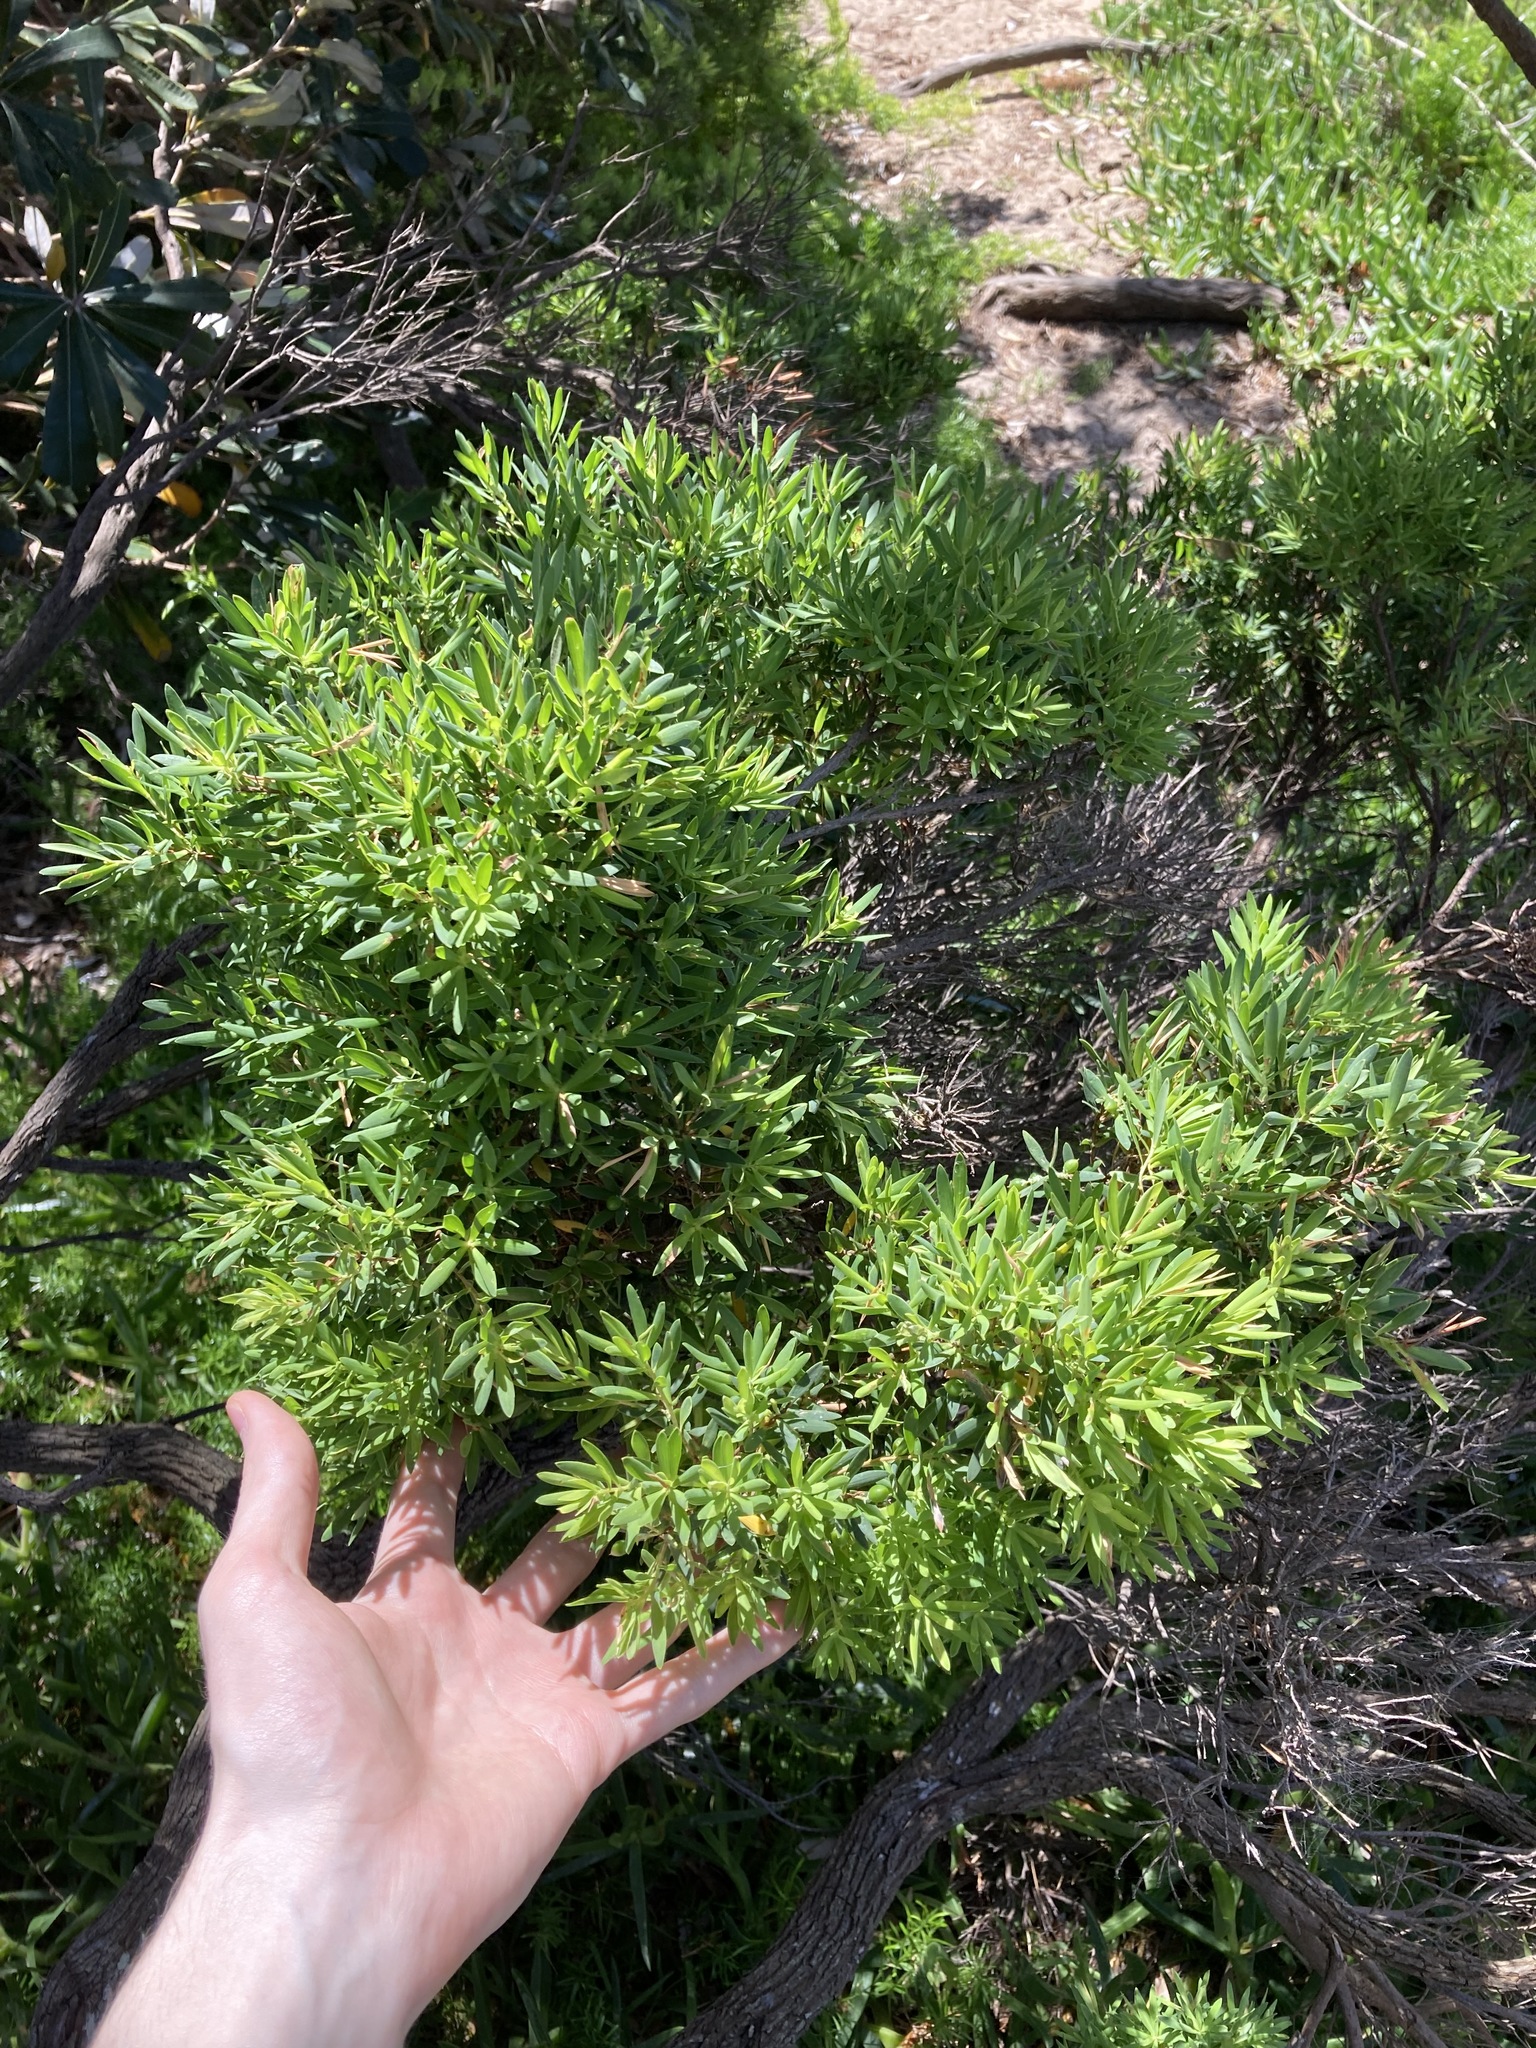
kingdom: Plantae
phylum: Tracheophyta
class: Magnoliopsida
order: Ericales
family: Ericaceae
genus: Leptecophylla
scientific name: Leptecophylla parvifolia
